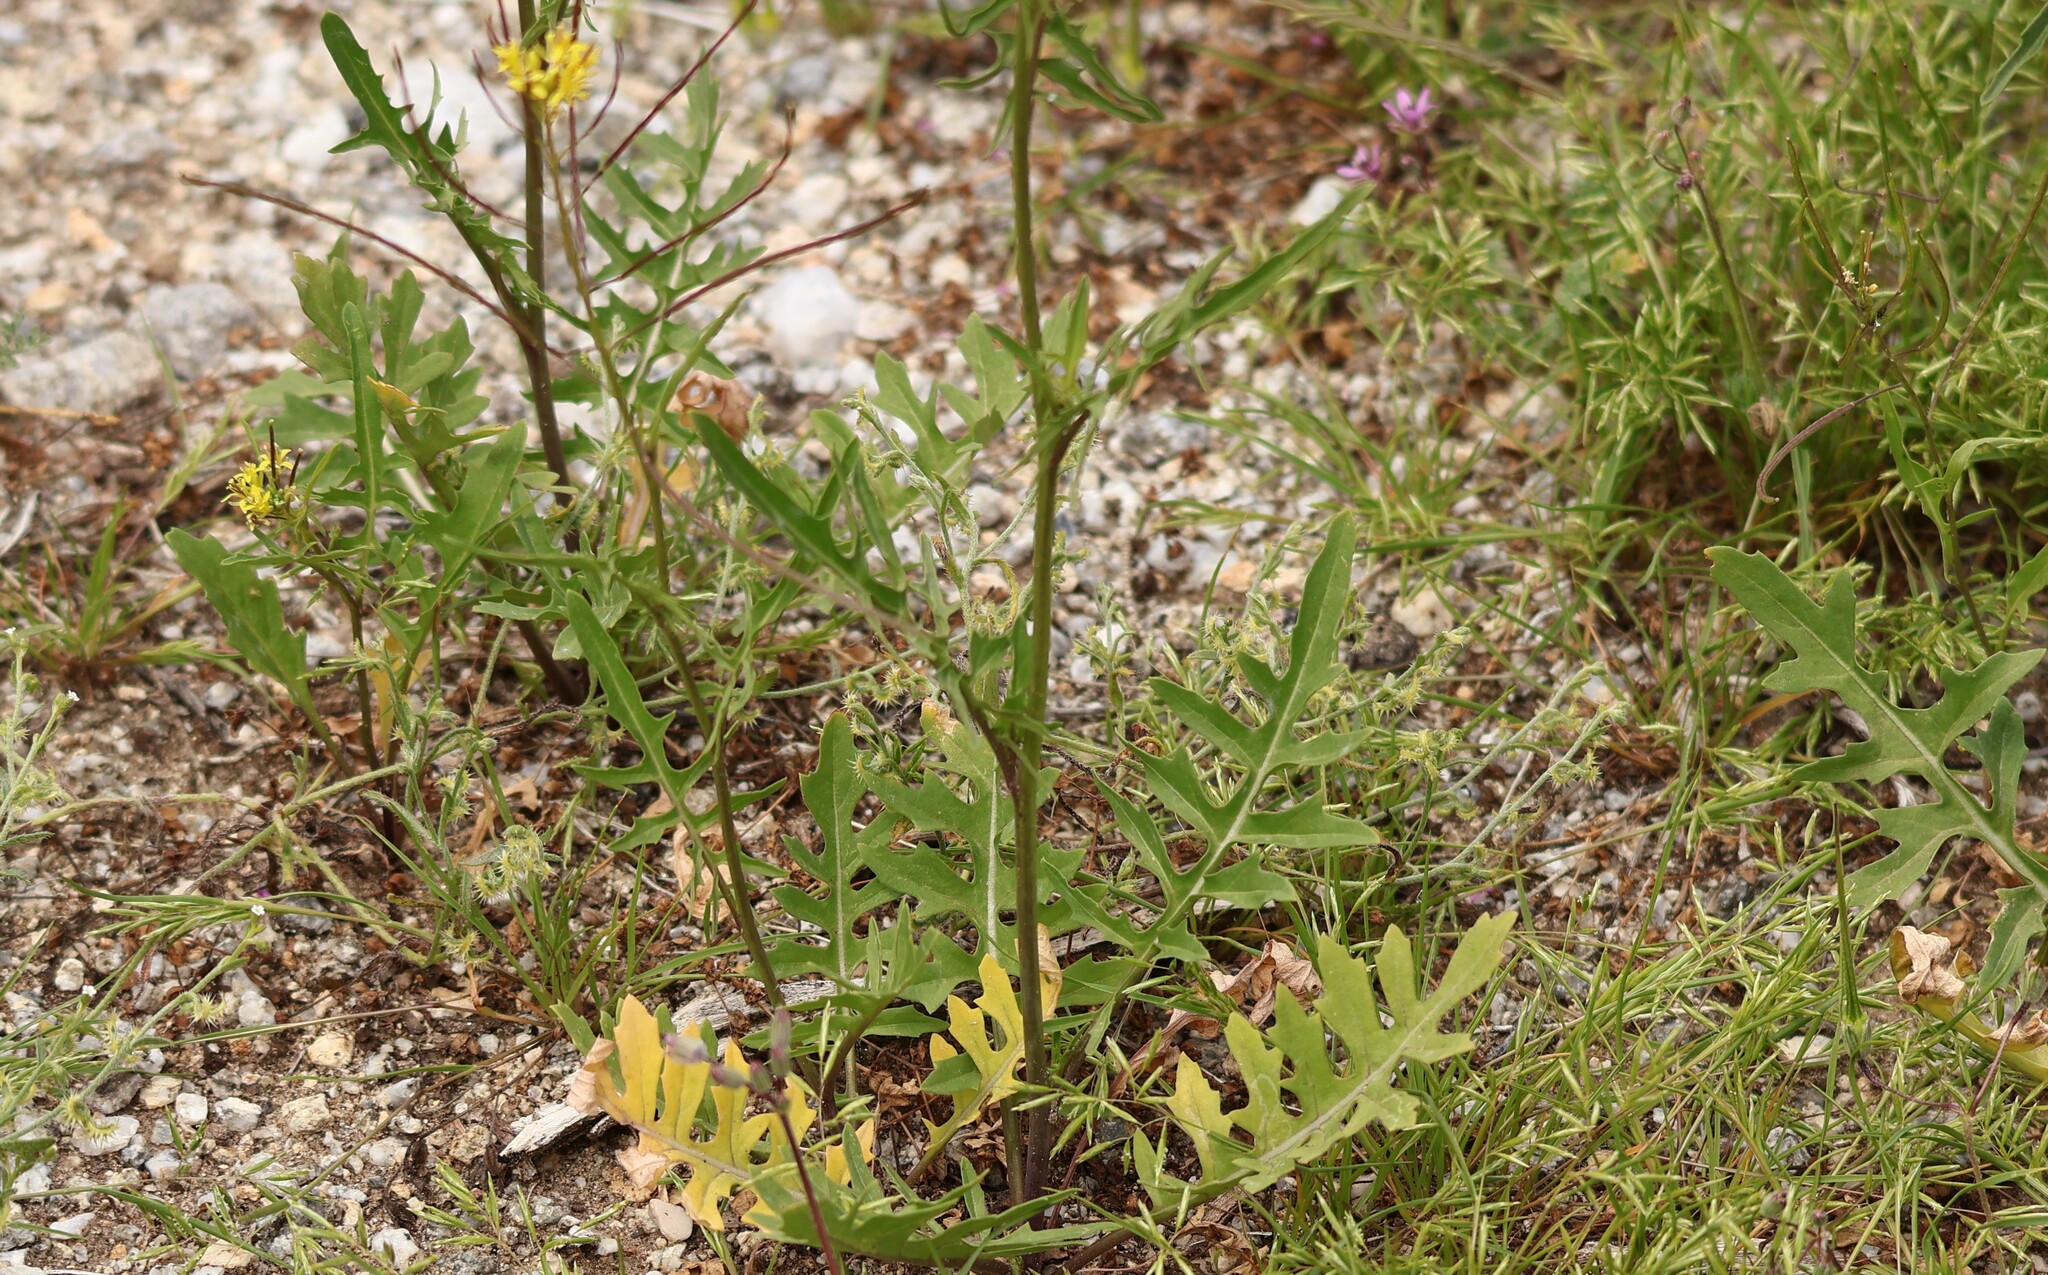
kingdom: Plantae
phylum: Tracheophyta
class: Magnoliopsida
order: Brassicales
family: Brassicaceae
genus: Sisymbrium
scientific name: Sisymbrium irio
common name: London rocket
